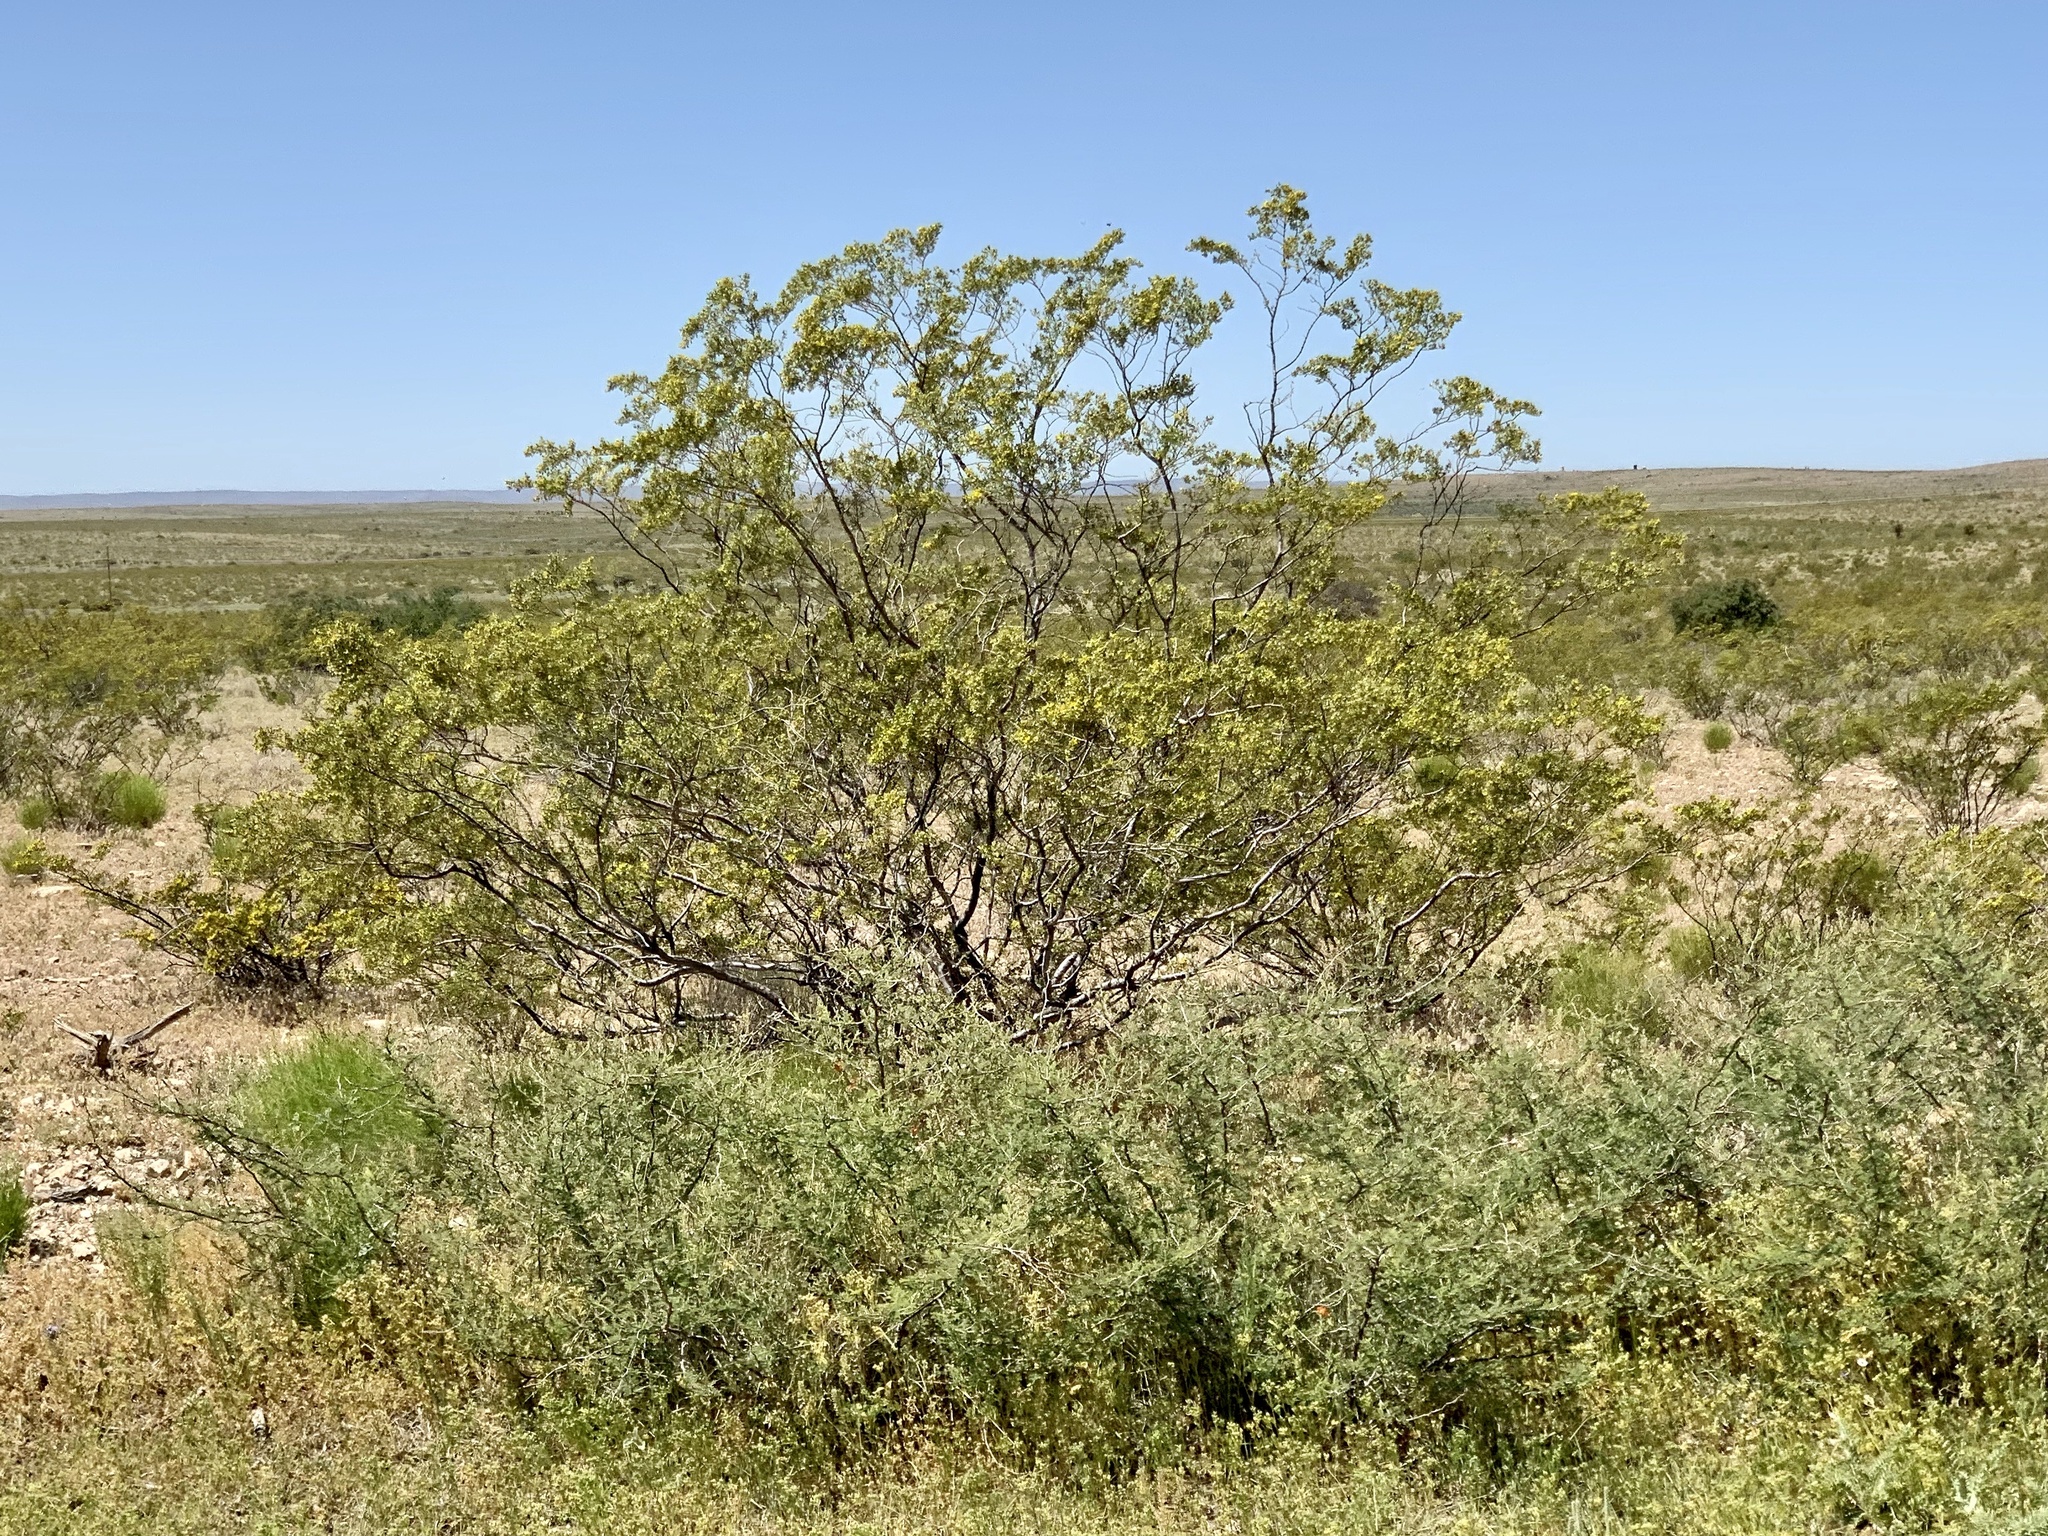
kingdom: Plantae
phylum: Tracheophyta
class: Magnoliopsida
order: Zygophyllales
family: Zygophyllaceae
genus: Larrea
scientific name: Larrea tridentata
